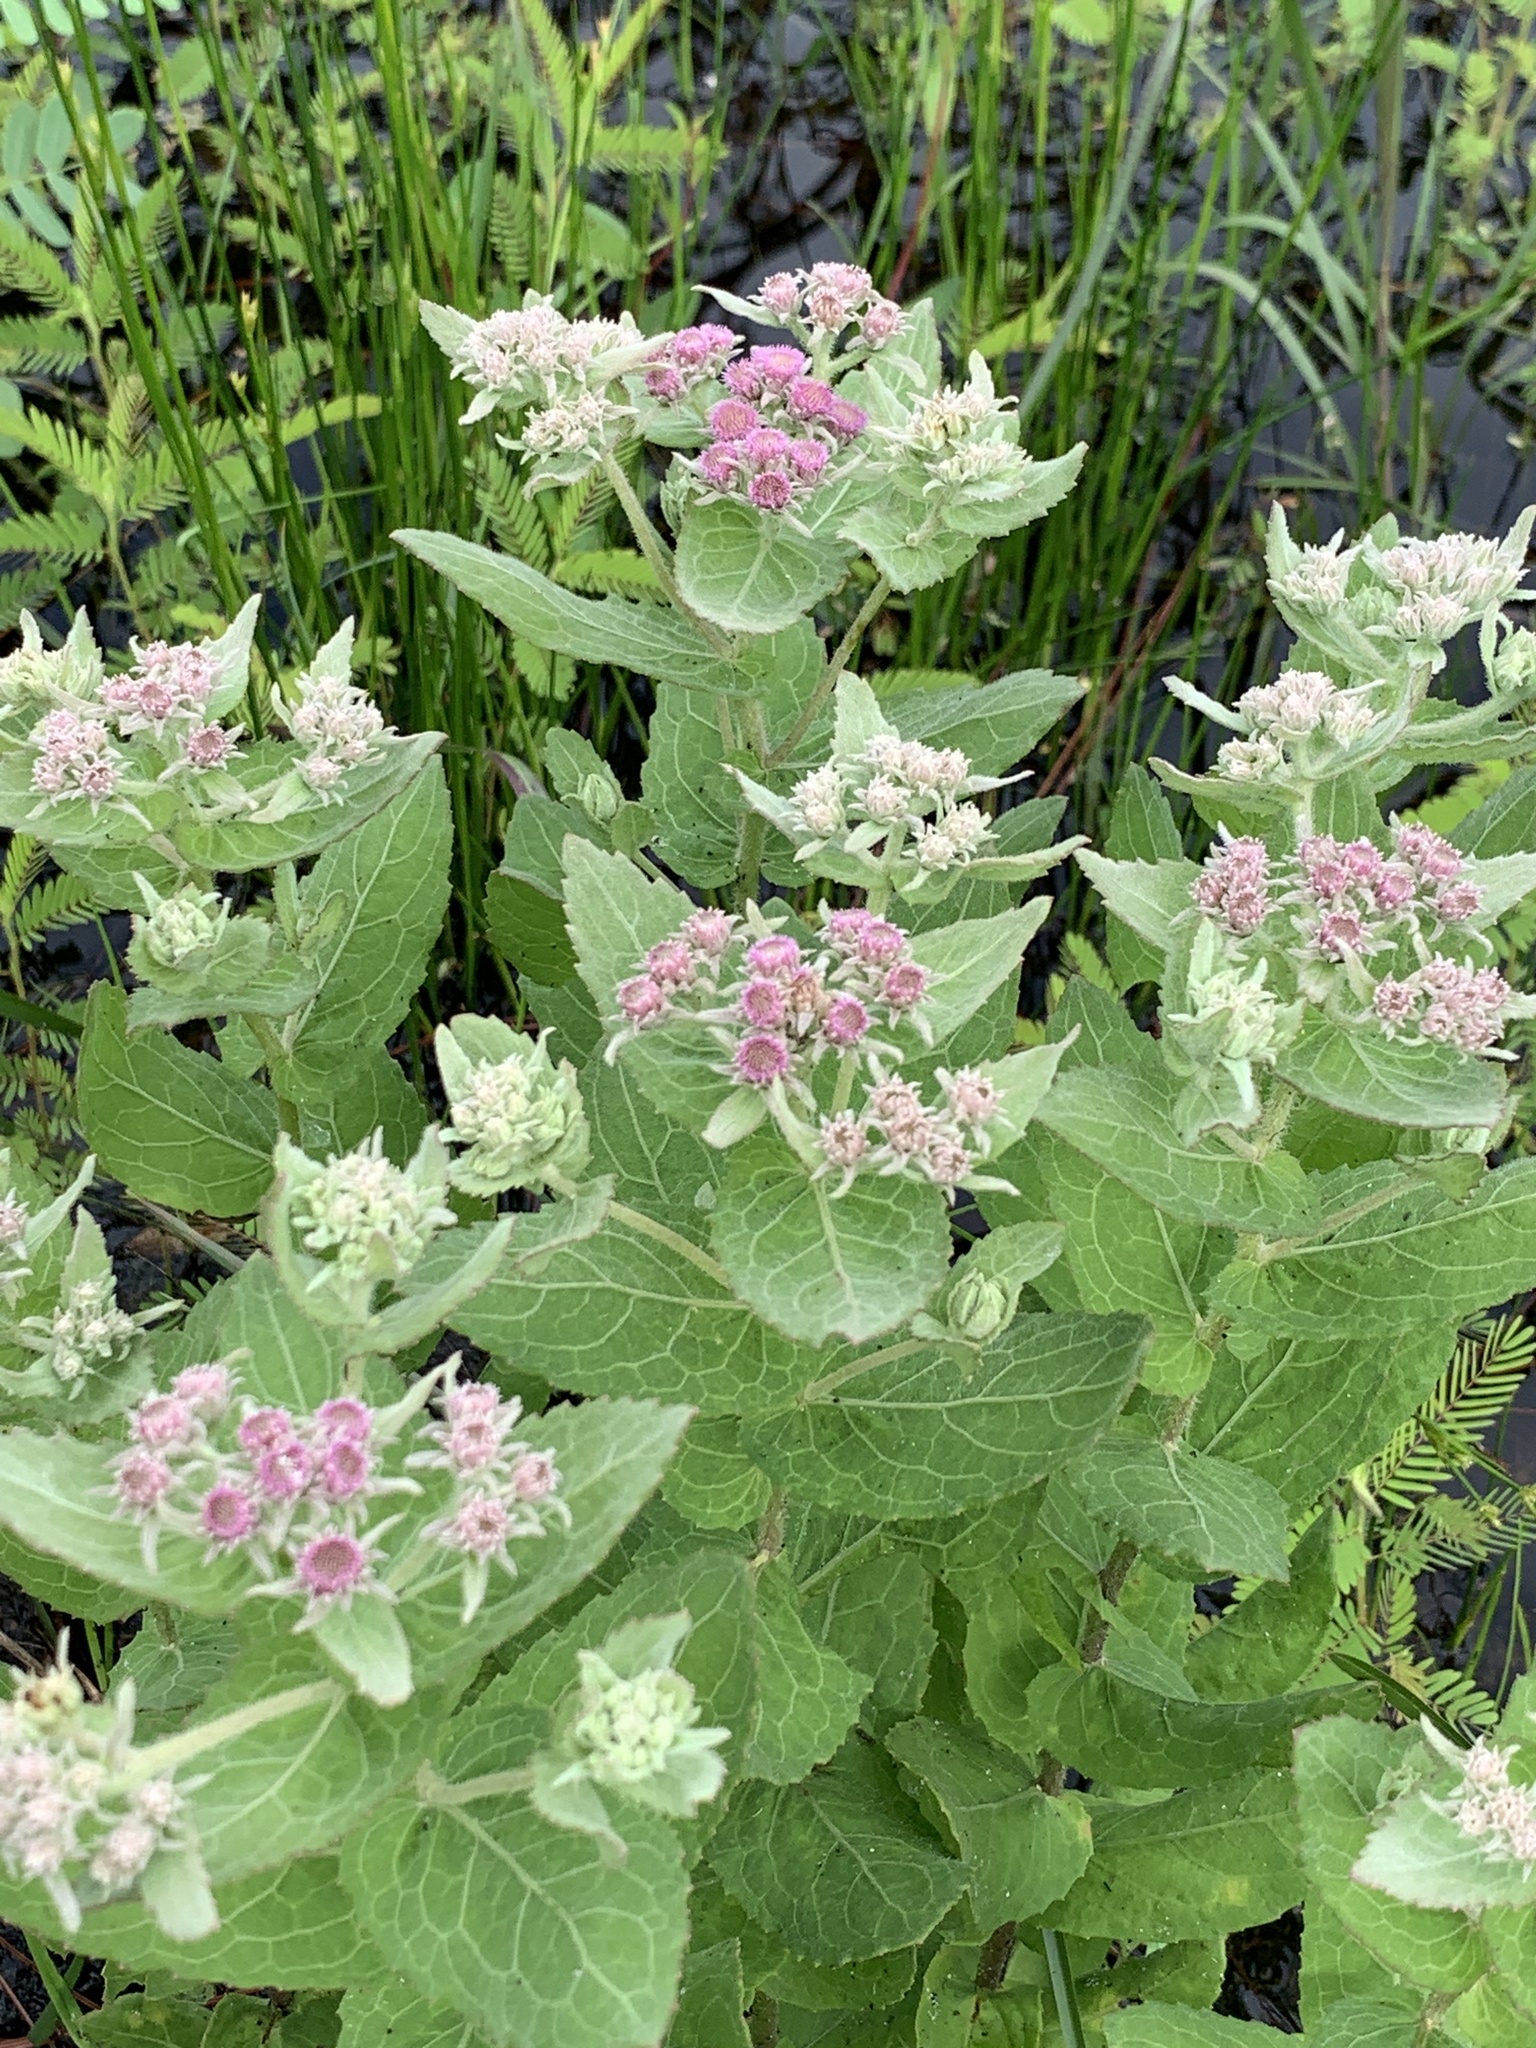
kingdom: Plantae
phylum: Tracheophyta
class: Magnoliopsida
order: Asterales
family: Asteraceae
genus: Pluchea
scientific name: Pluchea baccharis
